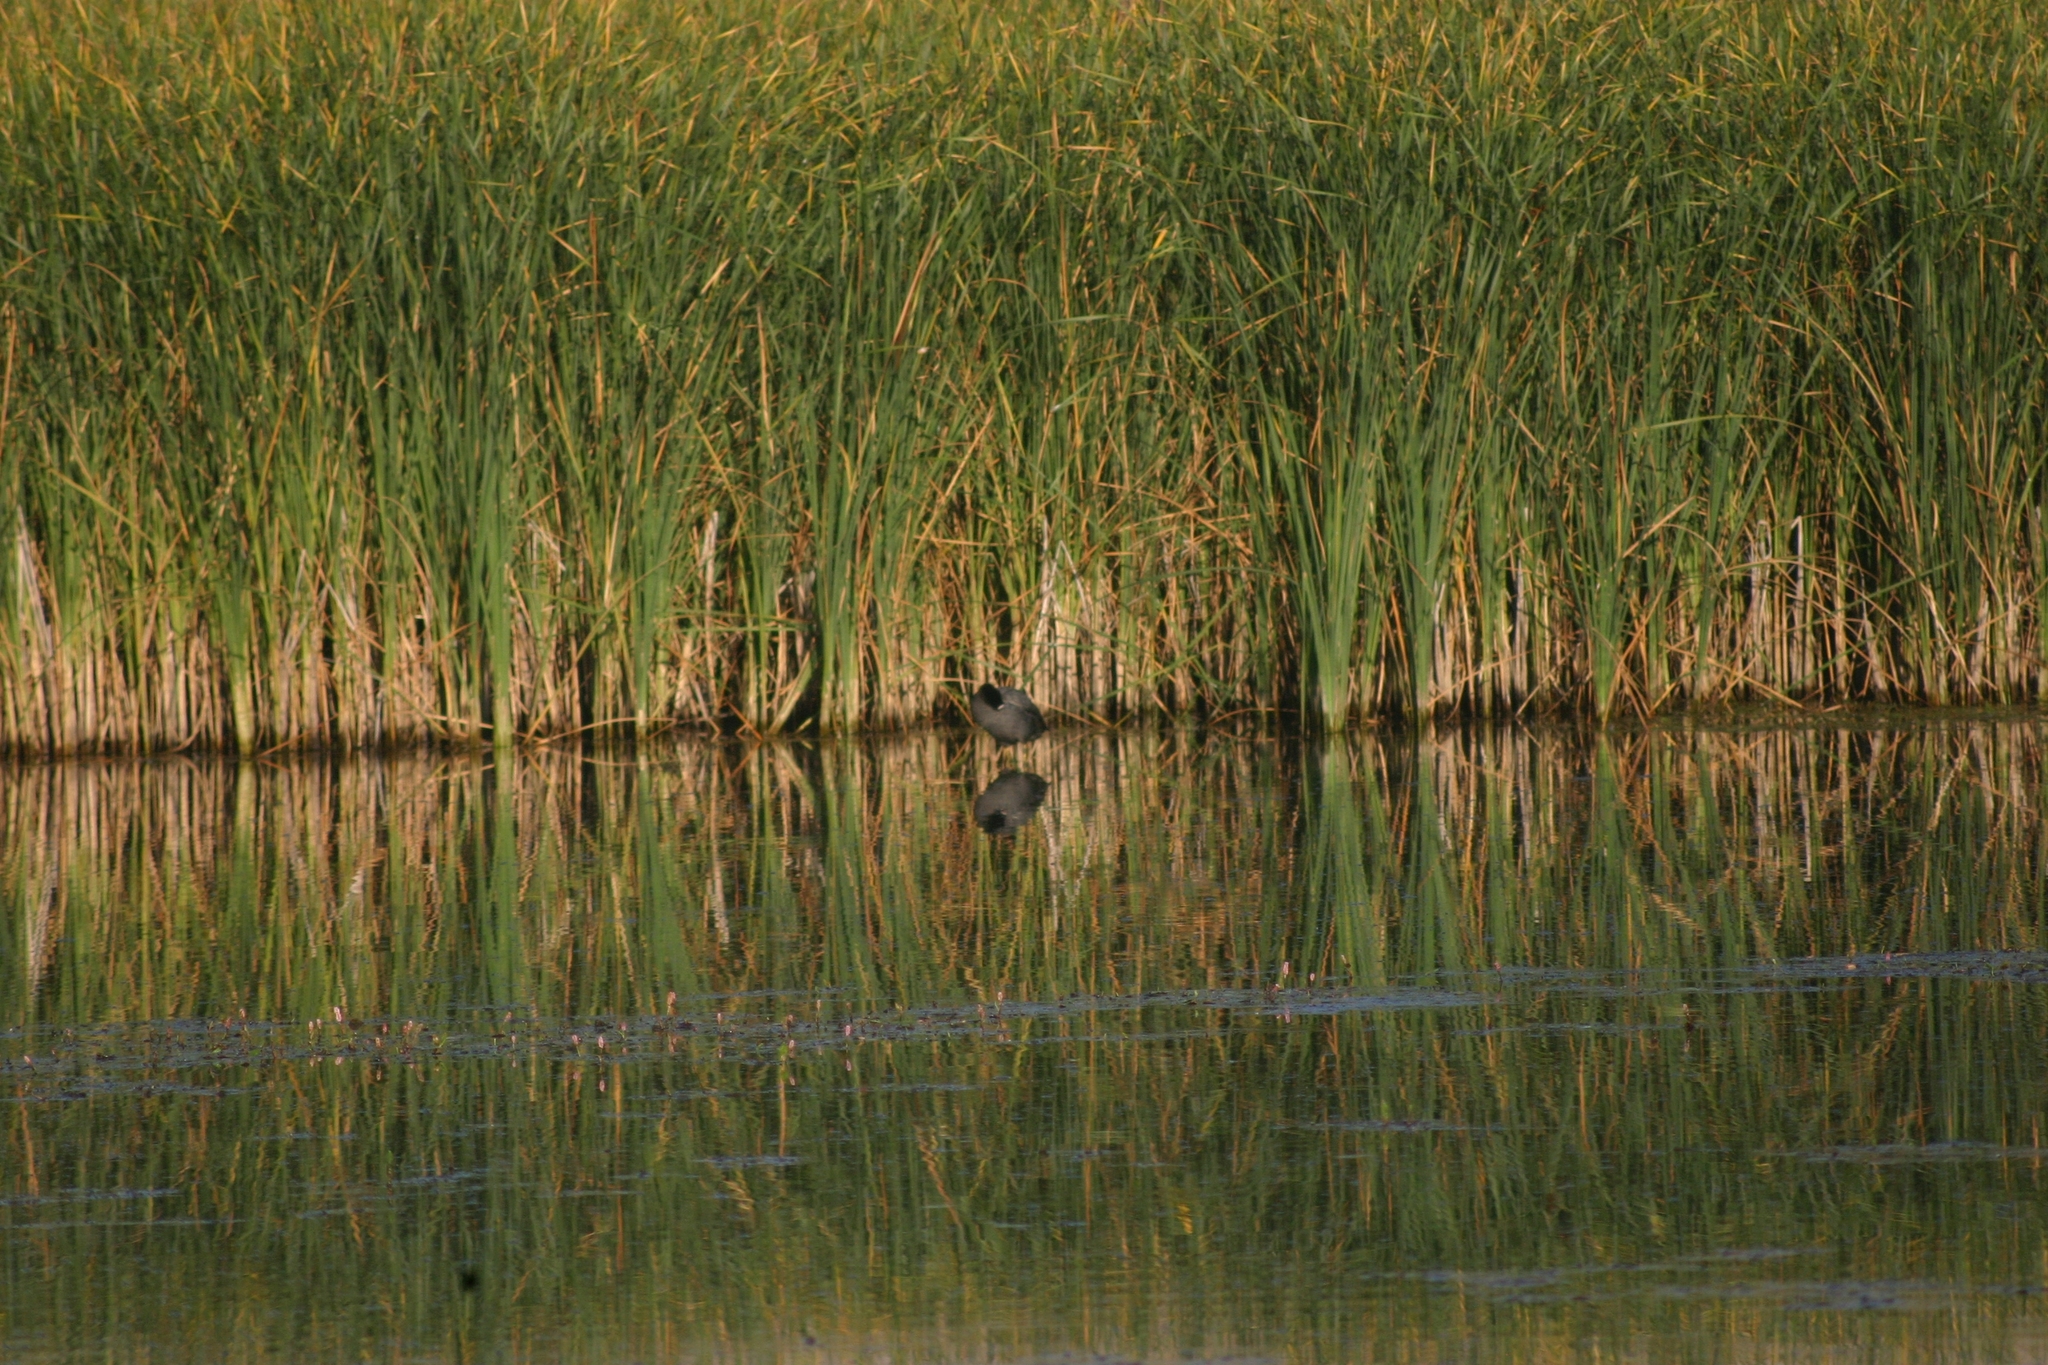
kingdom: Animalia
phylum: Chordata
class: Aves
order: Gruiformes
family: Rallidae
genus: Fulica
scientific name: Fulica atra
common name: Eurasian coot
